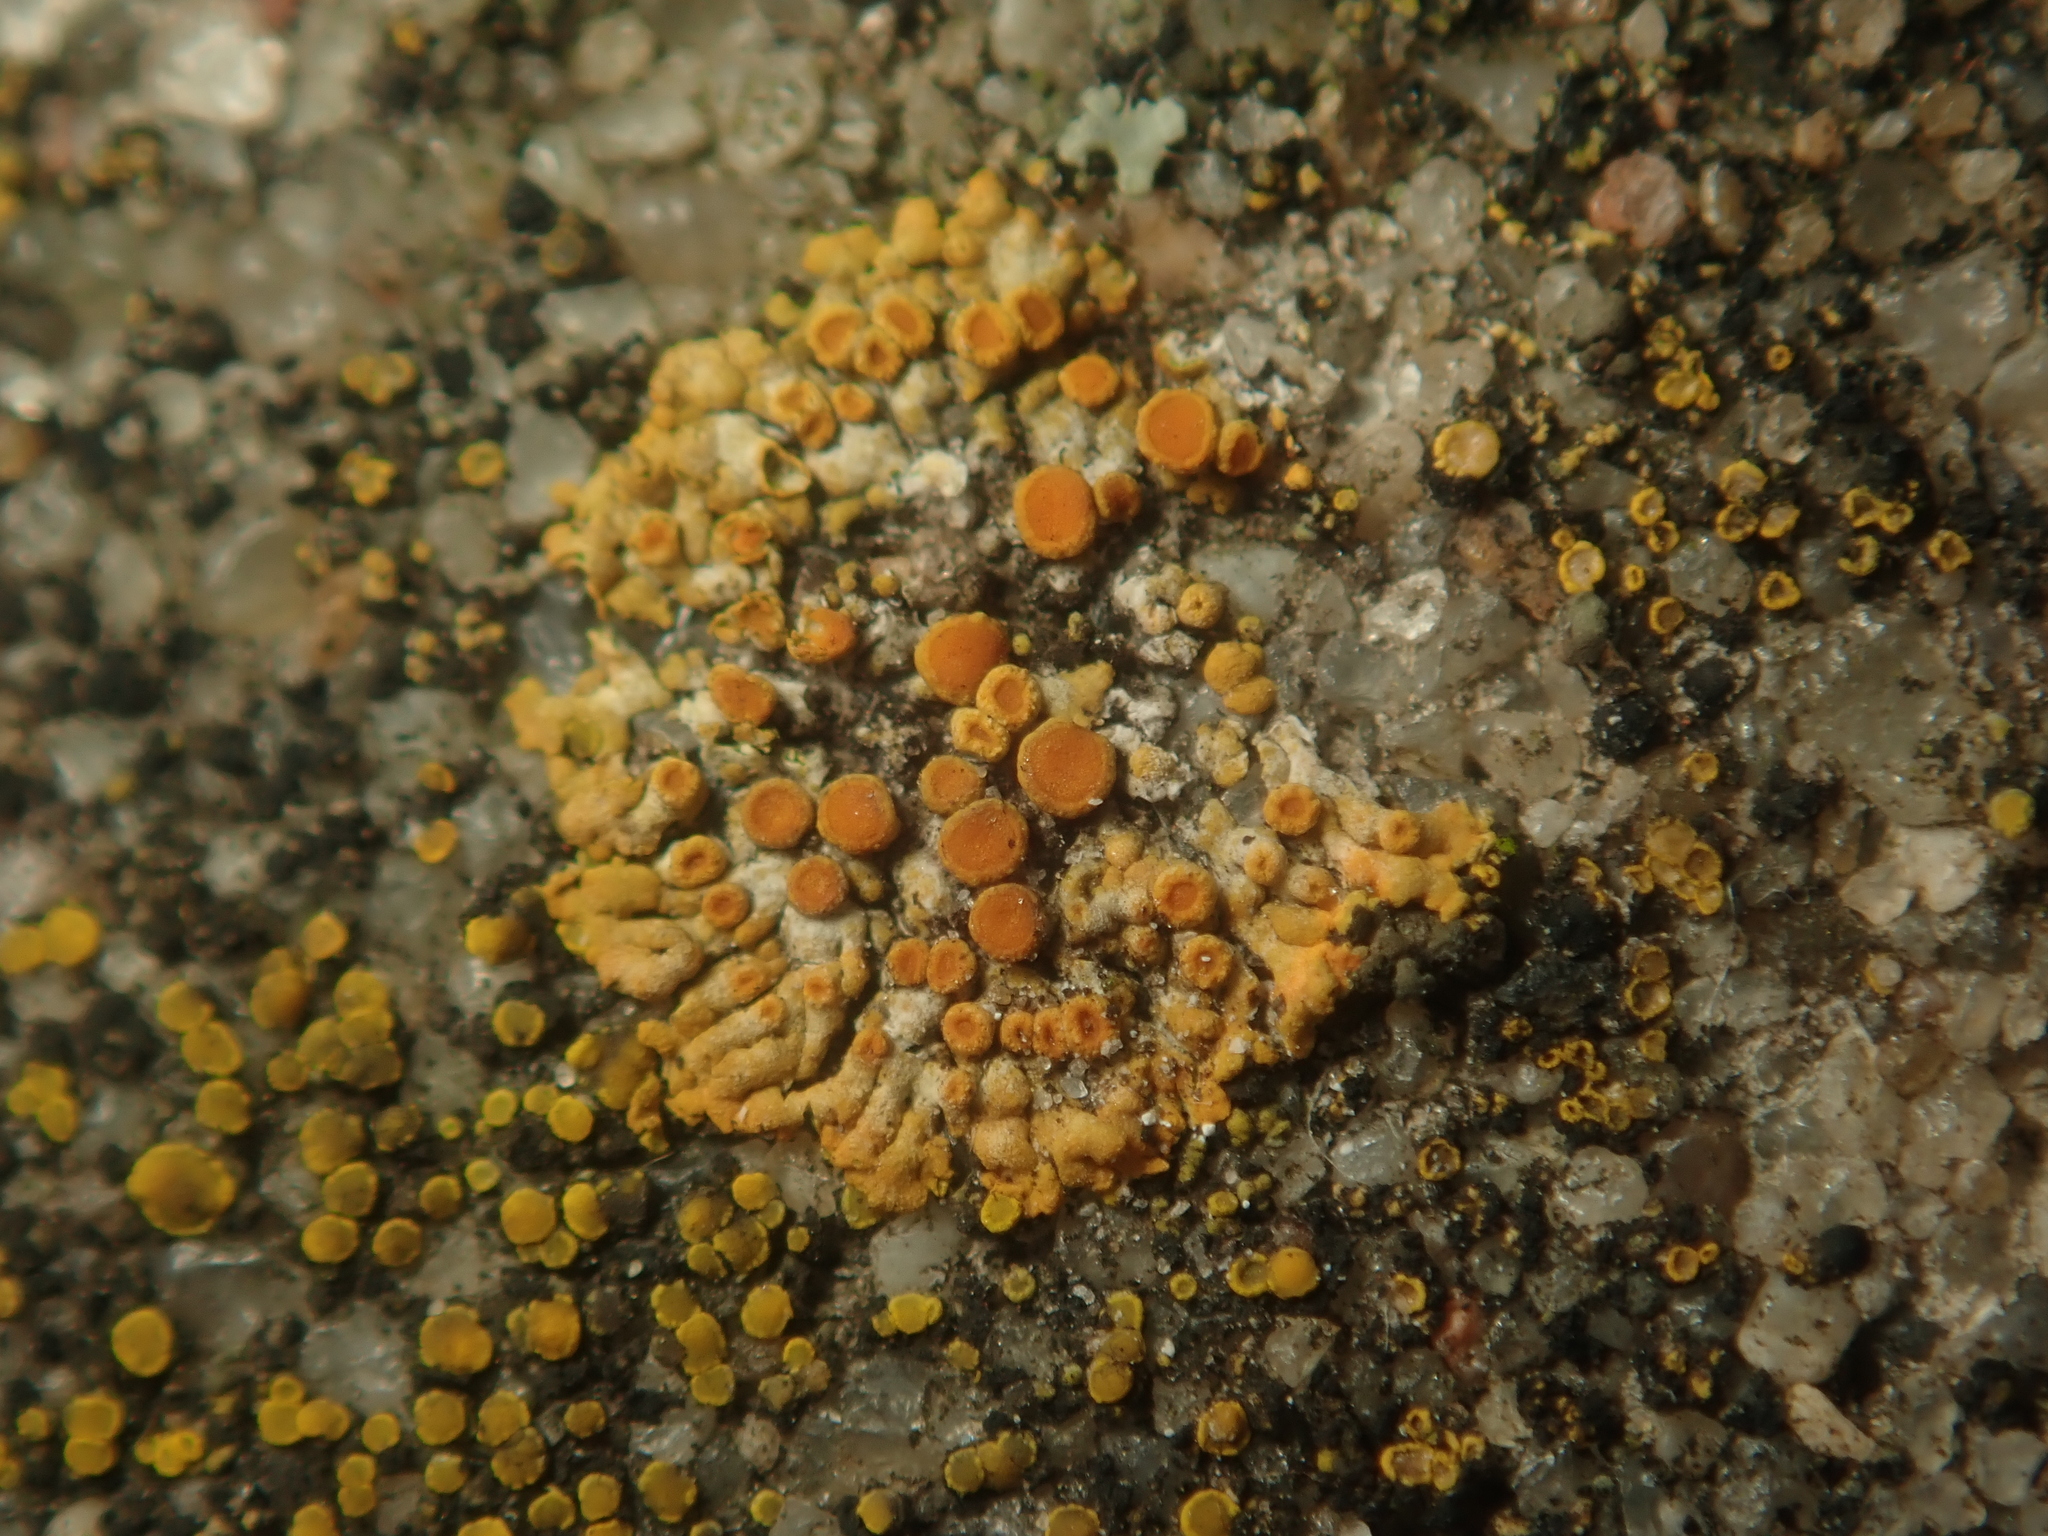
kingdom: Fungi
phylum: Ascomycota
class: Lecanoromycetes
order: Teloschistales
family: Teloschistaceae
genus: Calogaya
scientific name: Calogaya pusilla
